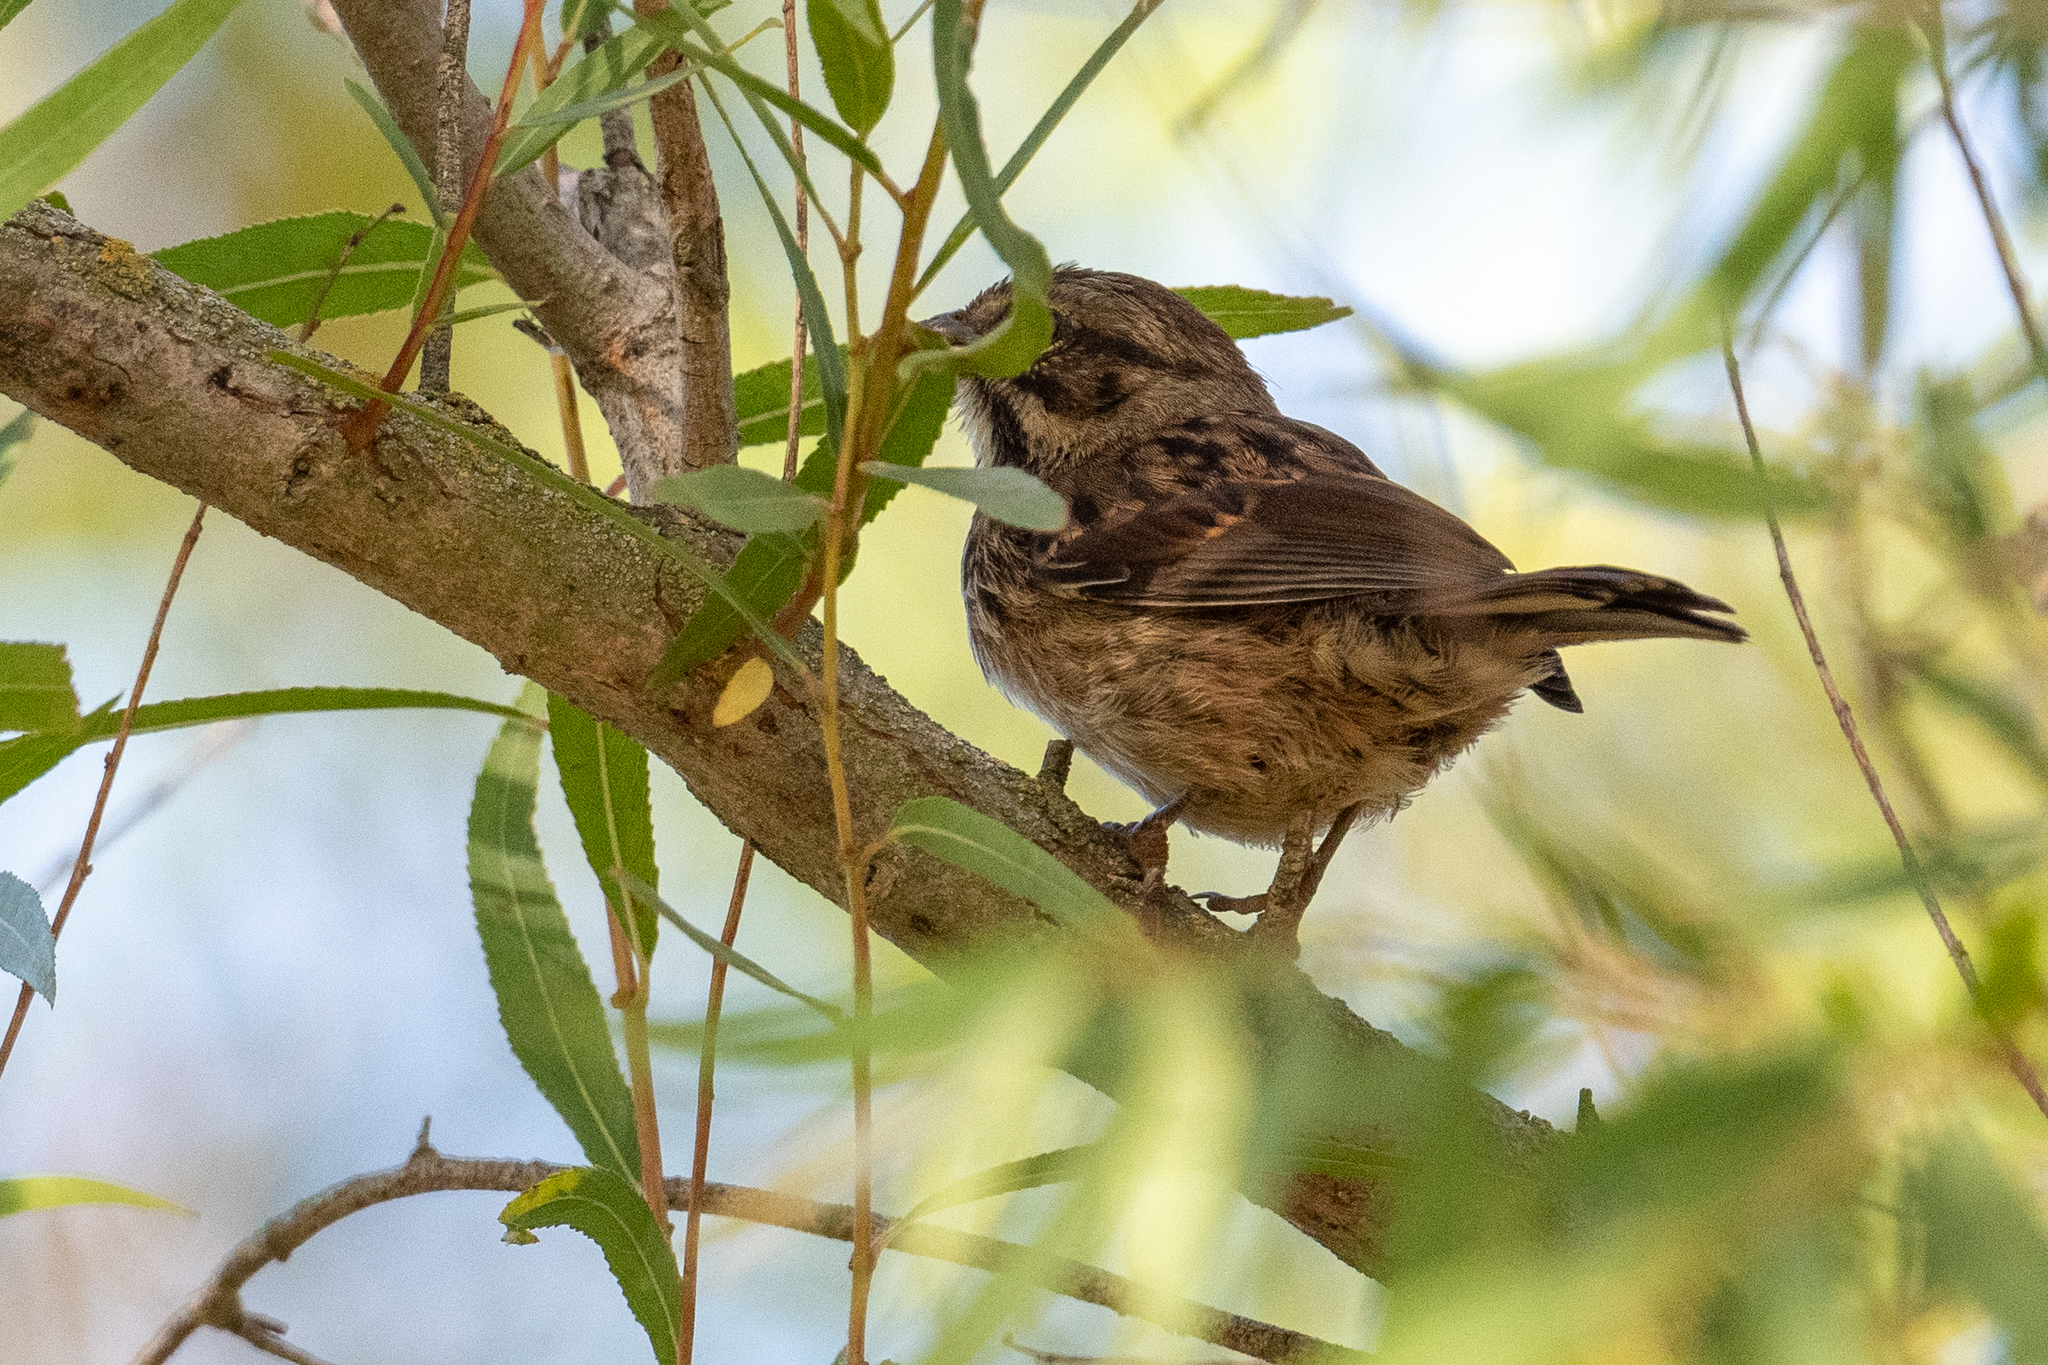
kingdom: Animalia
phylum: Chordata
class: Aves
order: Passeriformes
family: Passerellidae
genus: Melospiza
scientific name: Melospiza melodia
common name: Song sparrow
